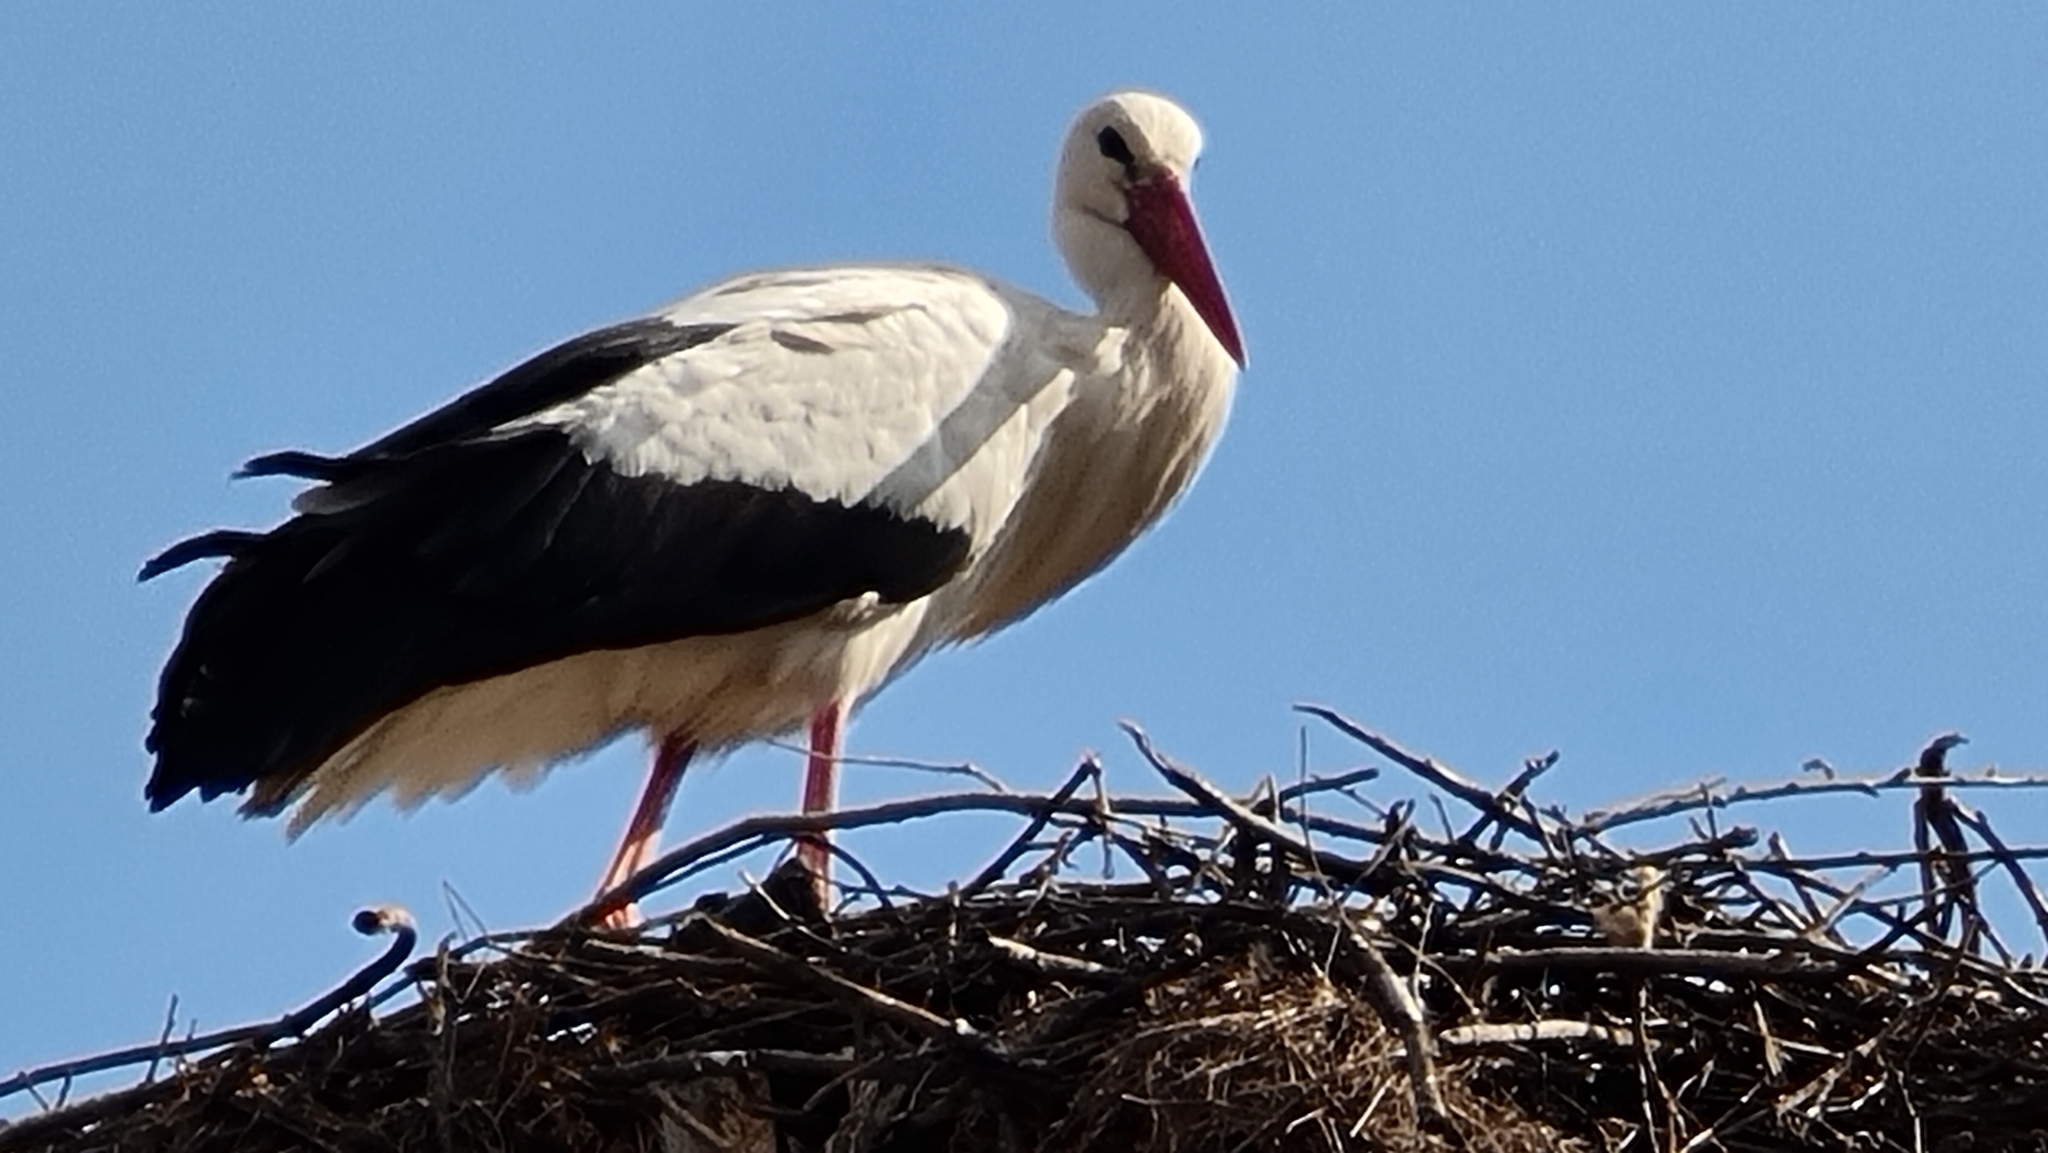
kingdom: Animalia
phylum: Chordata
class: Aves
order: Ciconiiformes
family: Ciconiidae
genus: Ciconia
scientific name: Ciconia ciconia
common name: White stork
